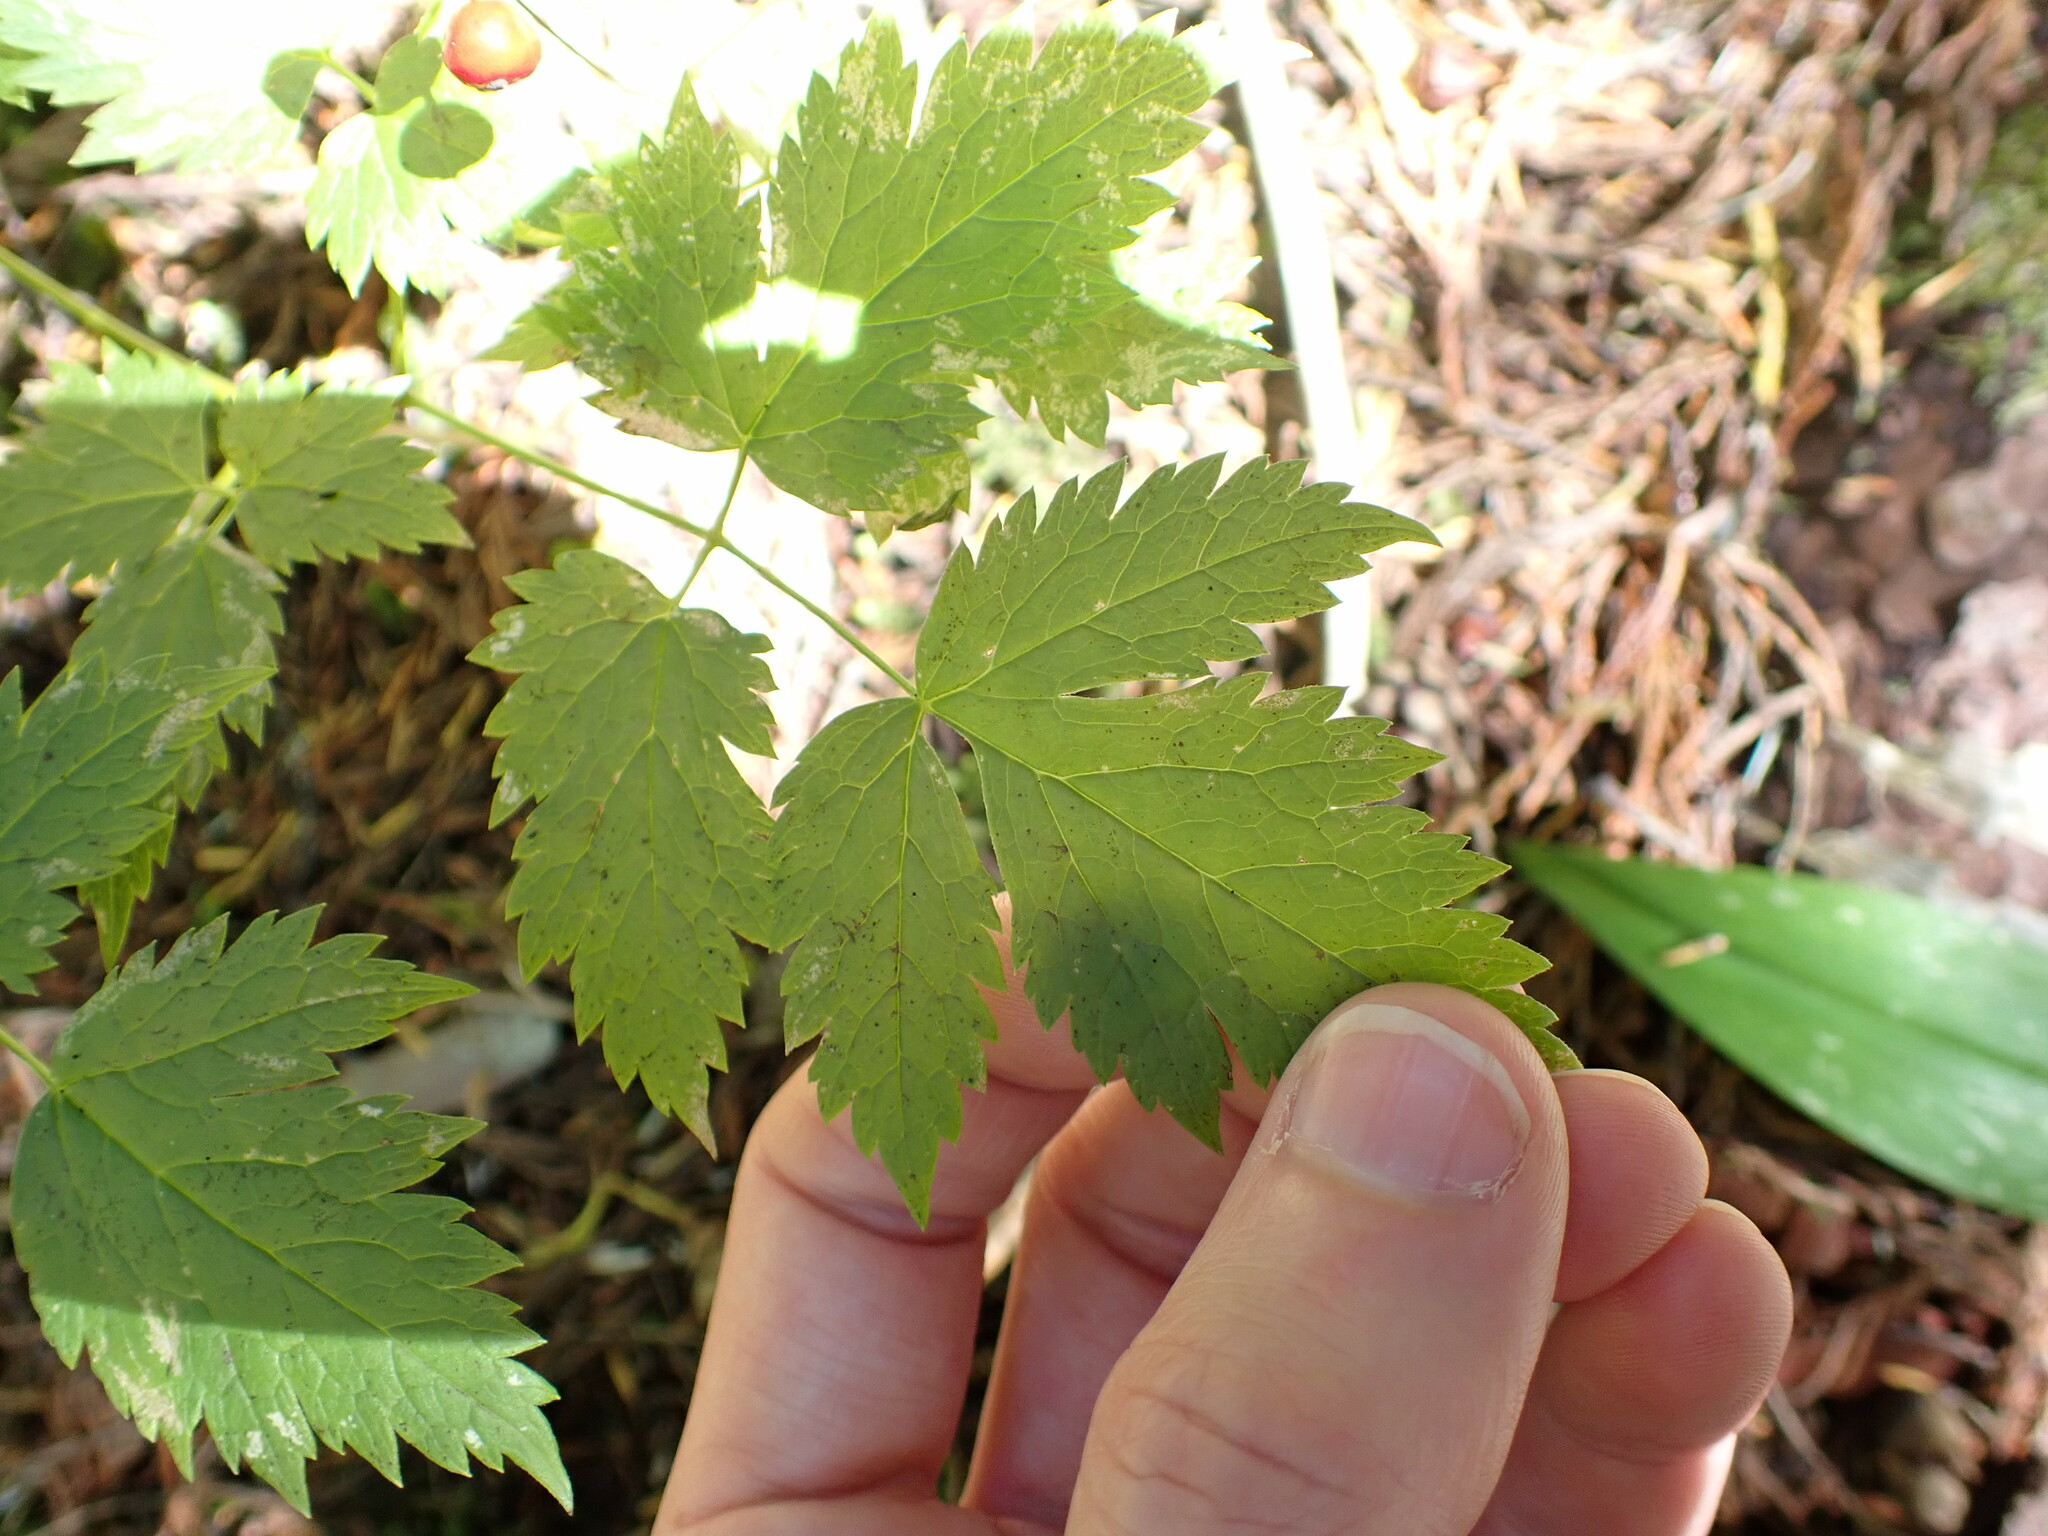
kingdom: Plantae
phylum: Tracheophyta
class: Magnoliopsida
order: Ranunculales
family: Ranunculaceae
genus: Actaea
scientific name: Actaea rubra
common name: Red baneberry
